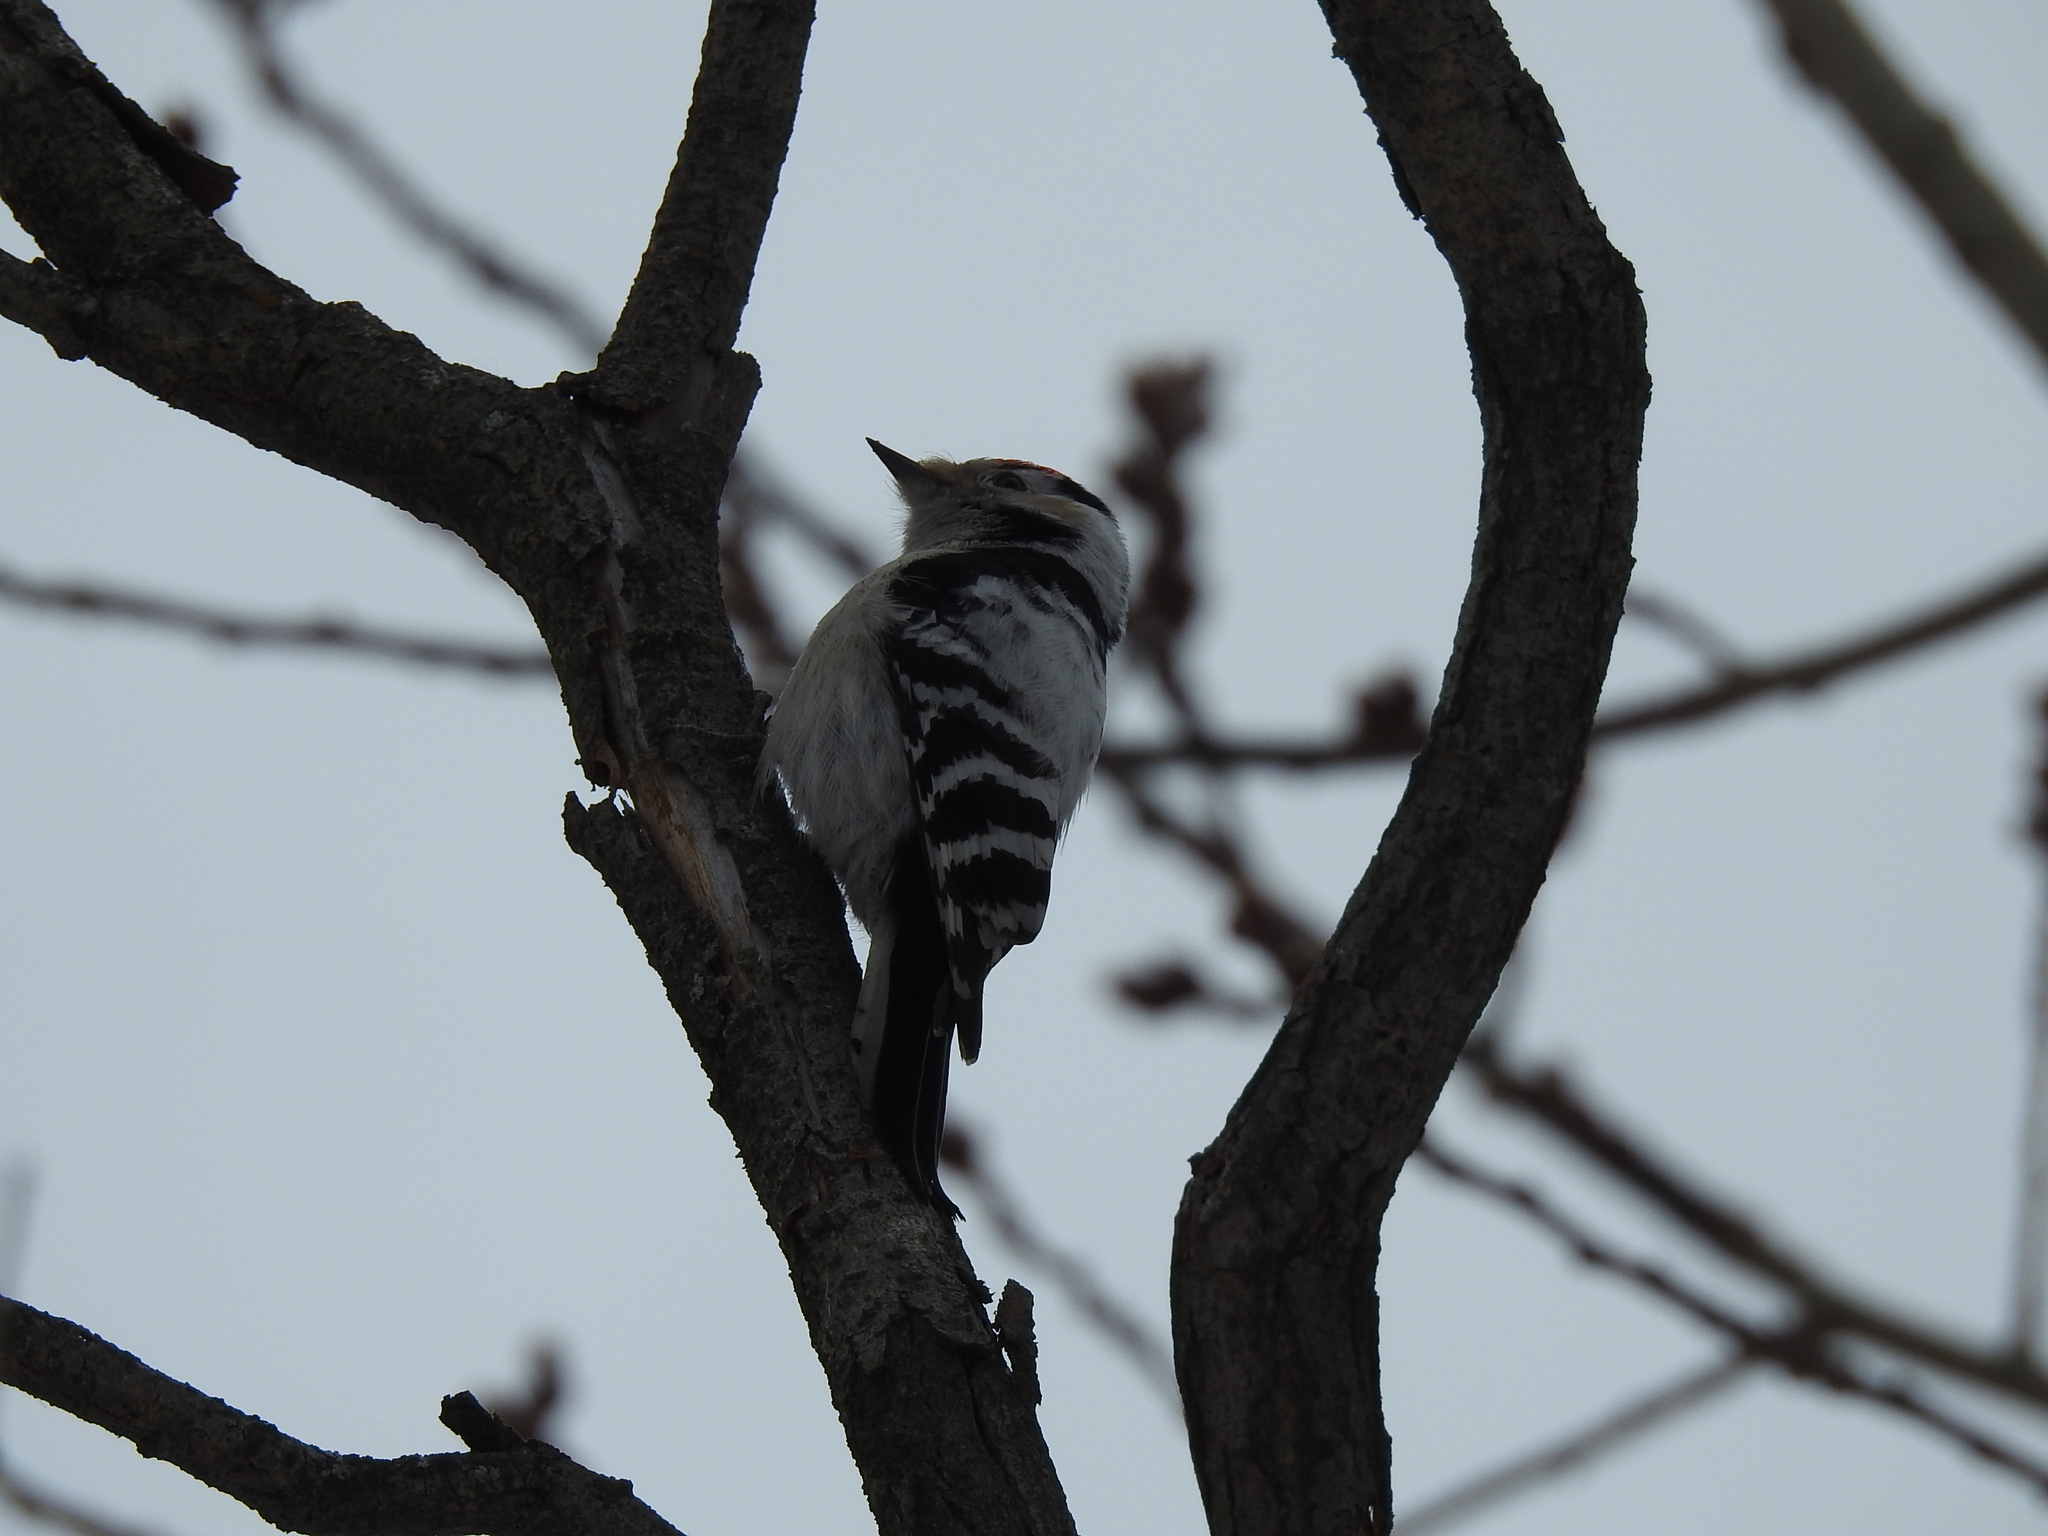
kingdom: Animalia
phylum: Chordata
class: Aves
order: Piciformes
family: Picidae
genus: Dryobates
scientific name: Dryobates minor
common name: Lesser spotted woodpecker
